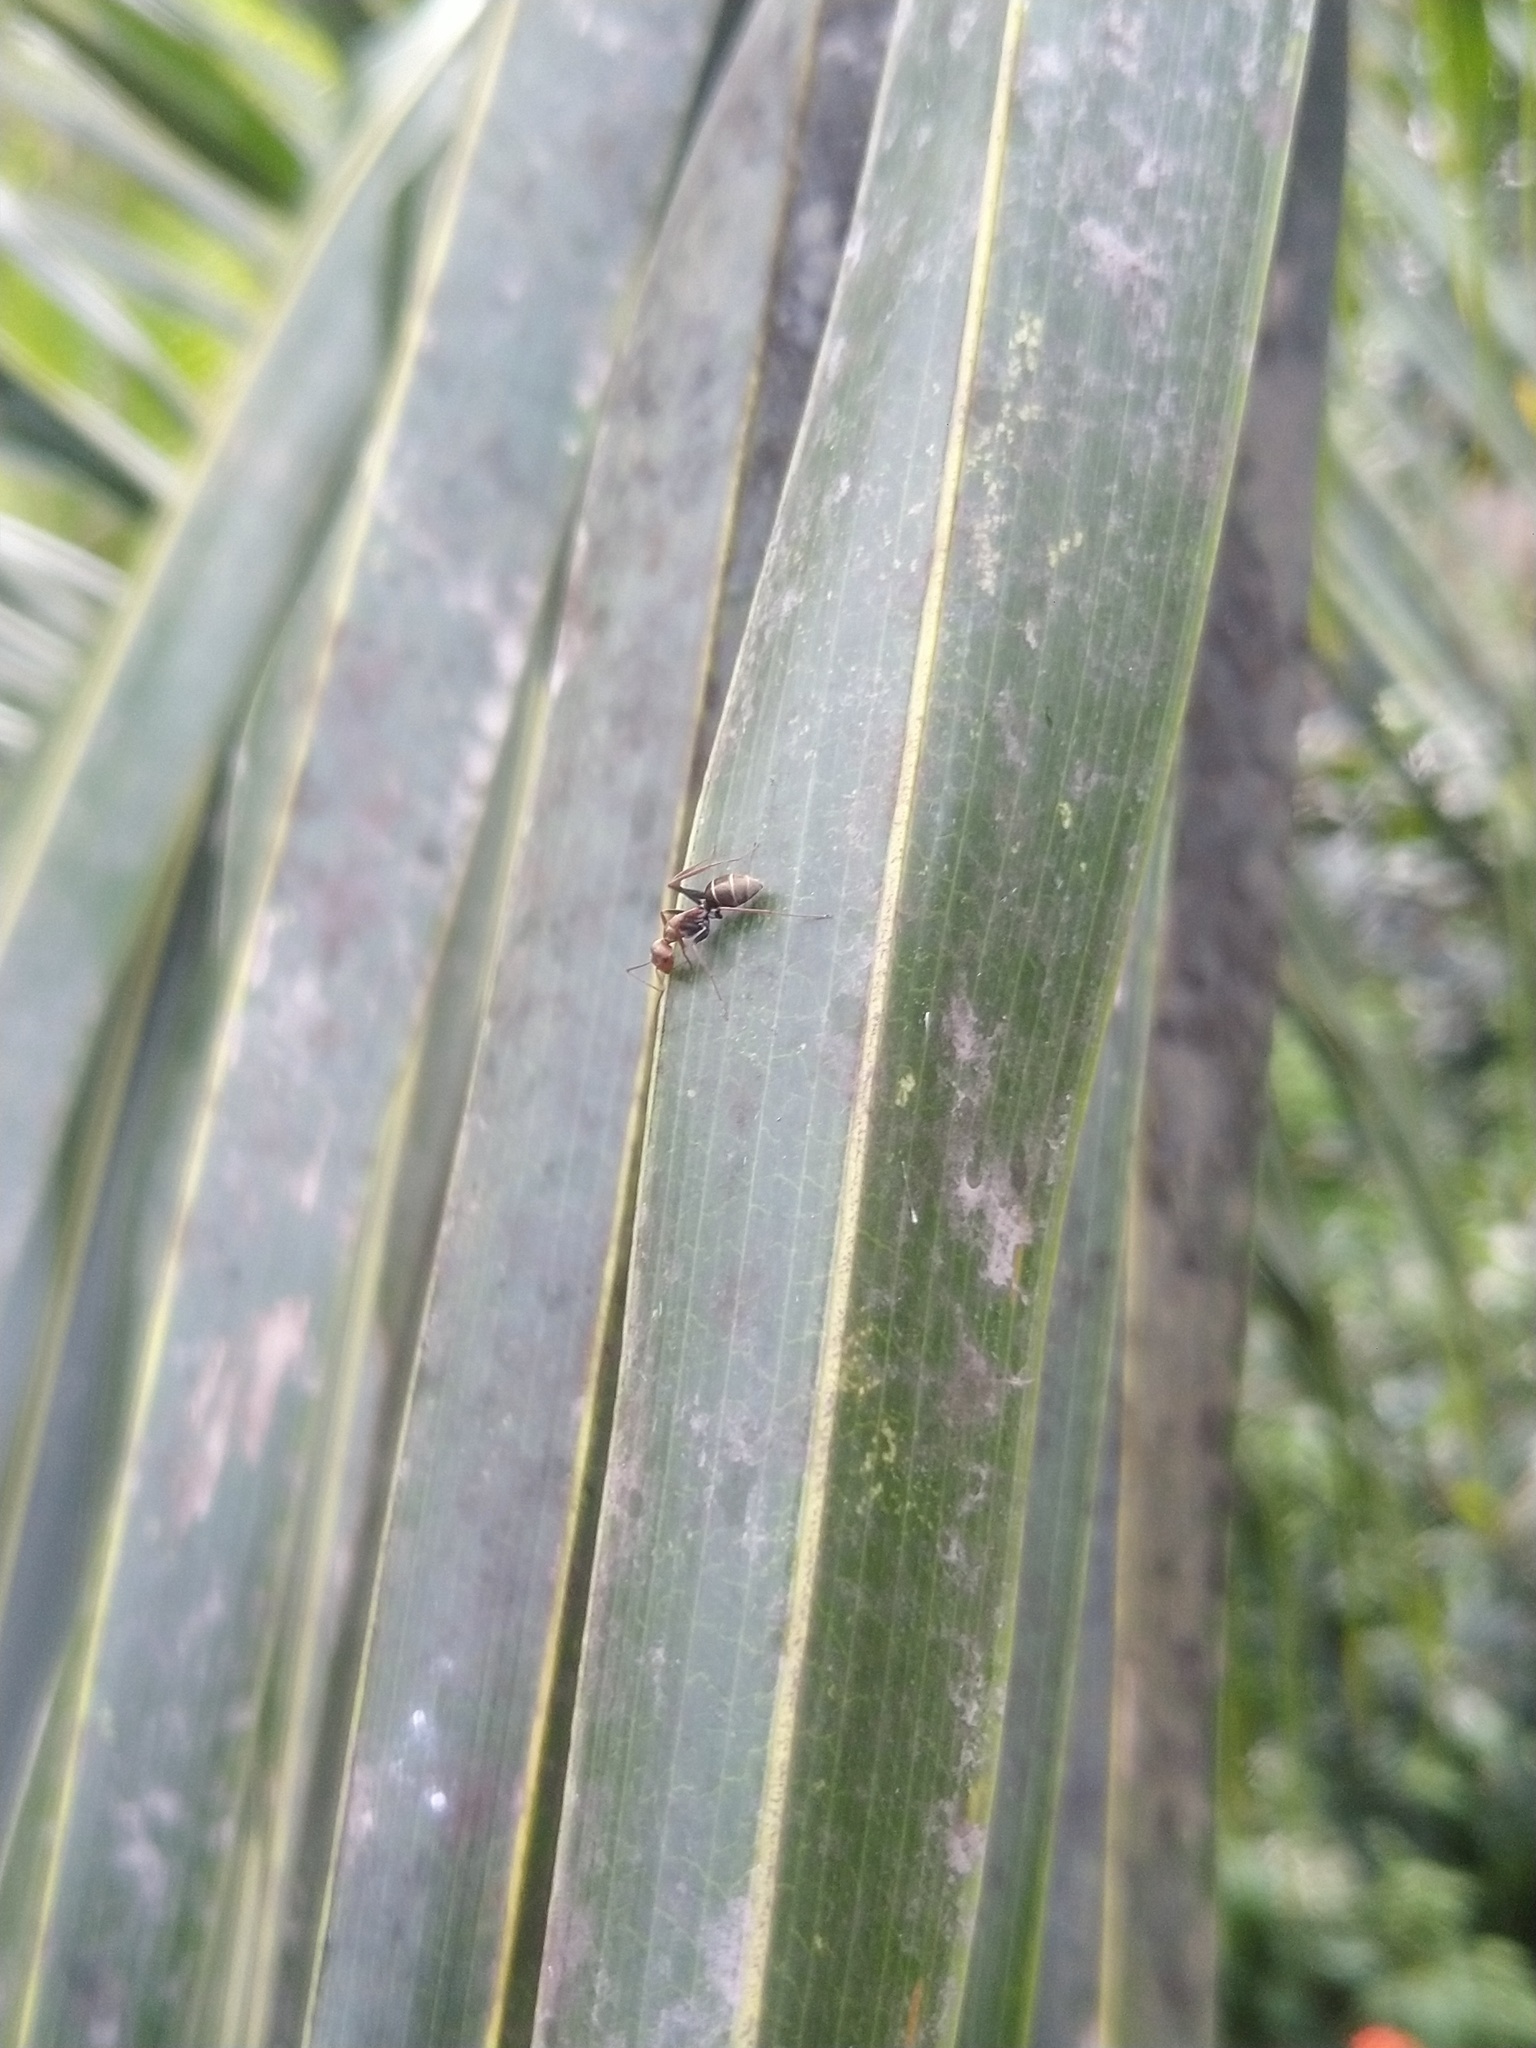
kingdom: Animalia
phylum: Arthropoda
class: Insecta
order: Hymenoptera
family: Formicidae
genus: Camponotus
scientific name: Camponotus rufoglaucus
